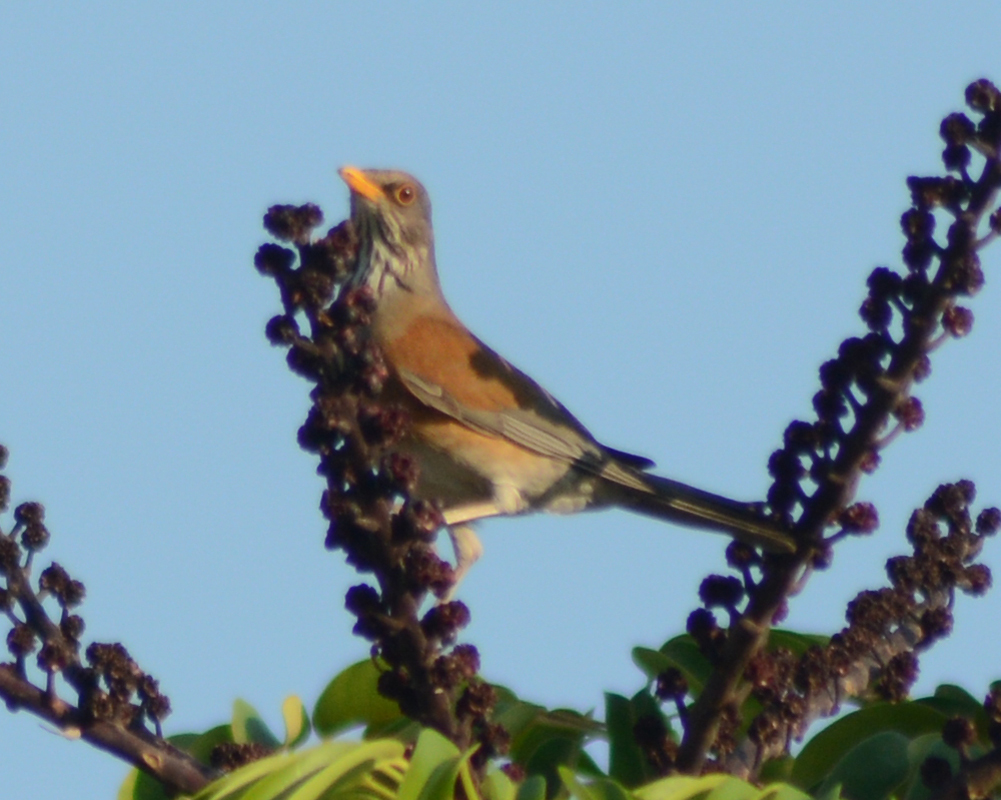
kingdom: Animalia
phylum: Chordata
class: Aves
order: Passeriformes
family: Turdidae
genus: Turdus
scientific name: Turdus rufopalliatus
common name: Rufous-backed robin
